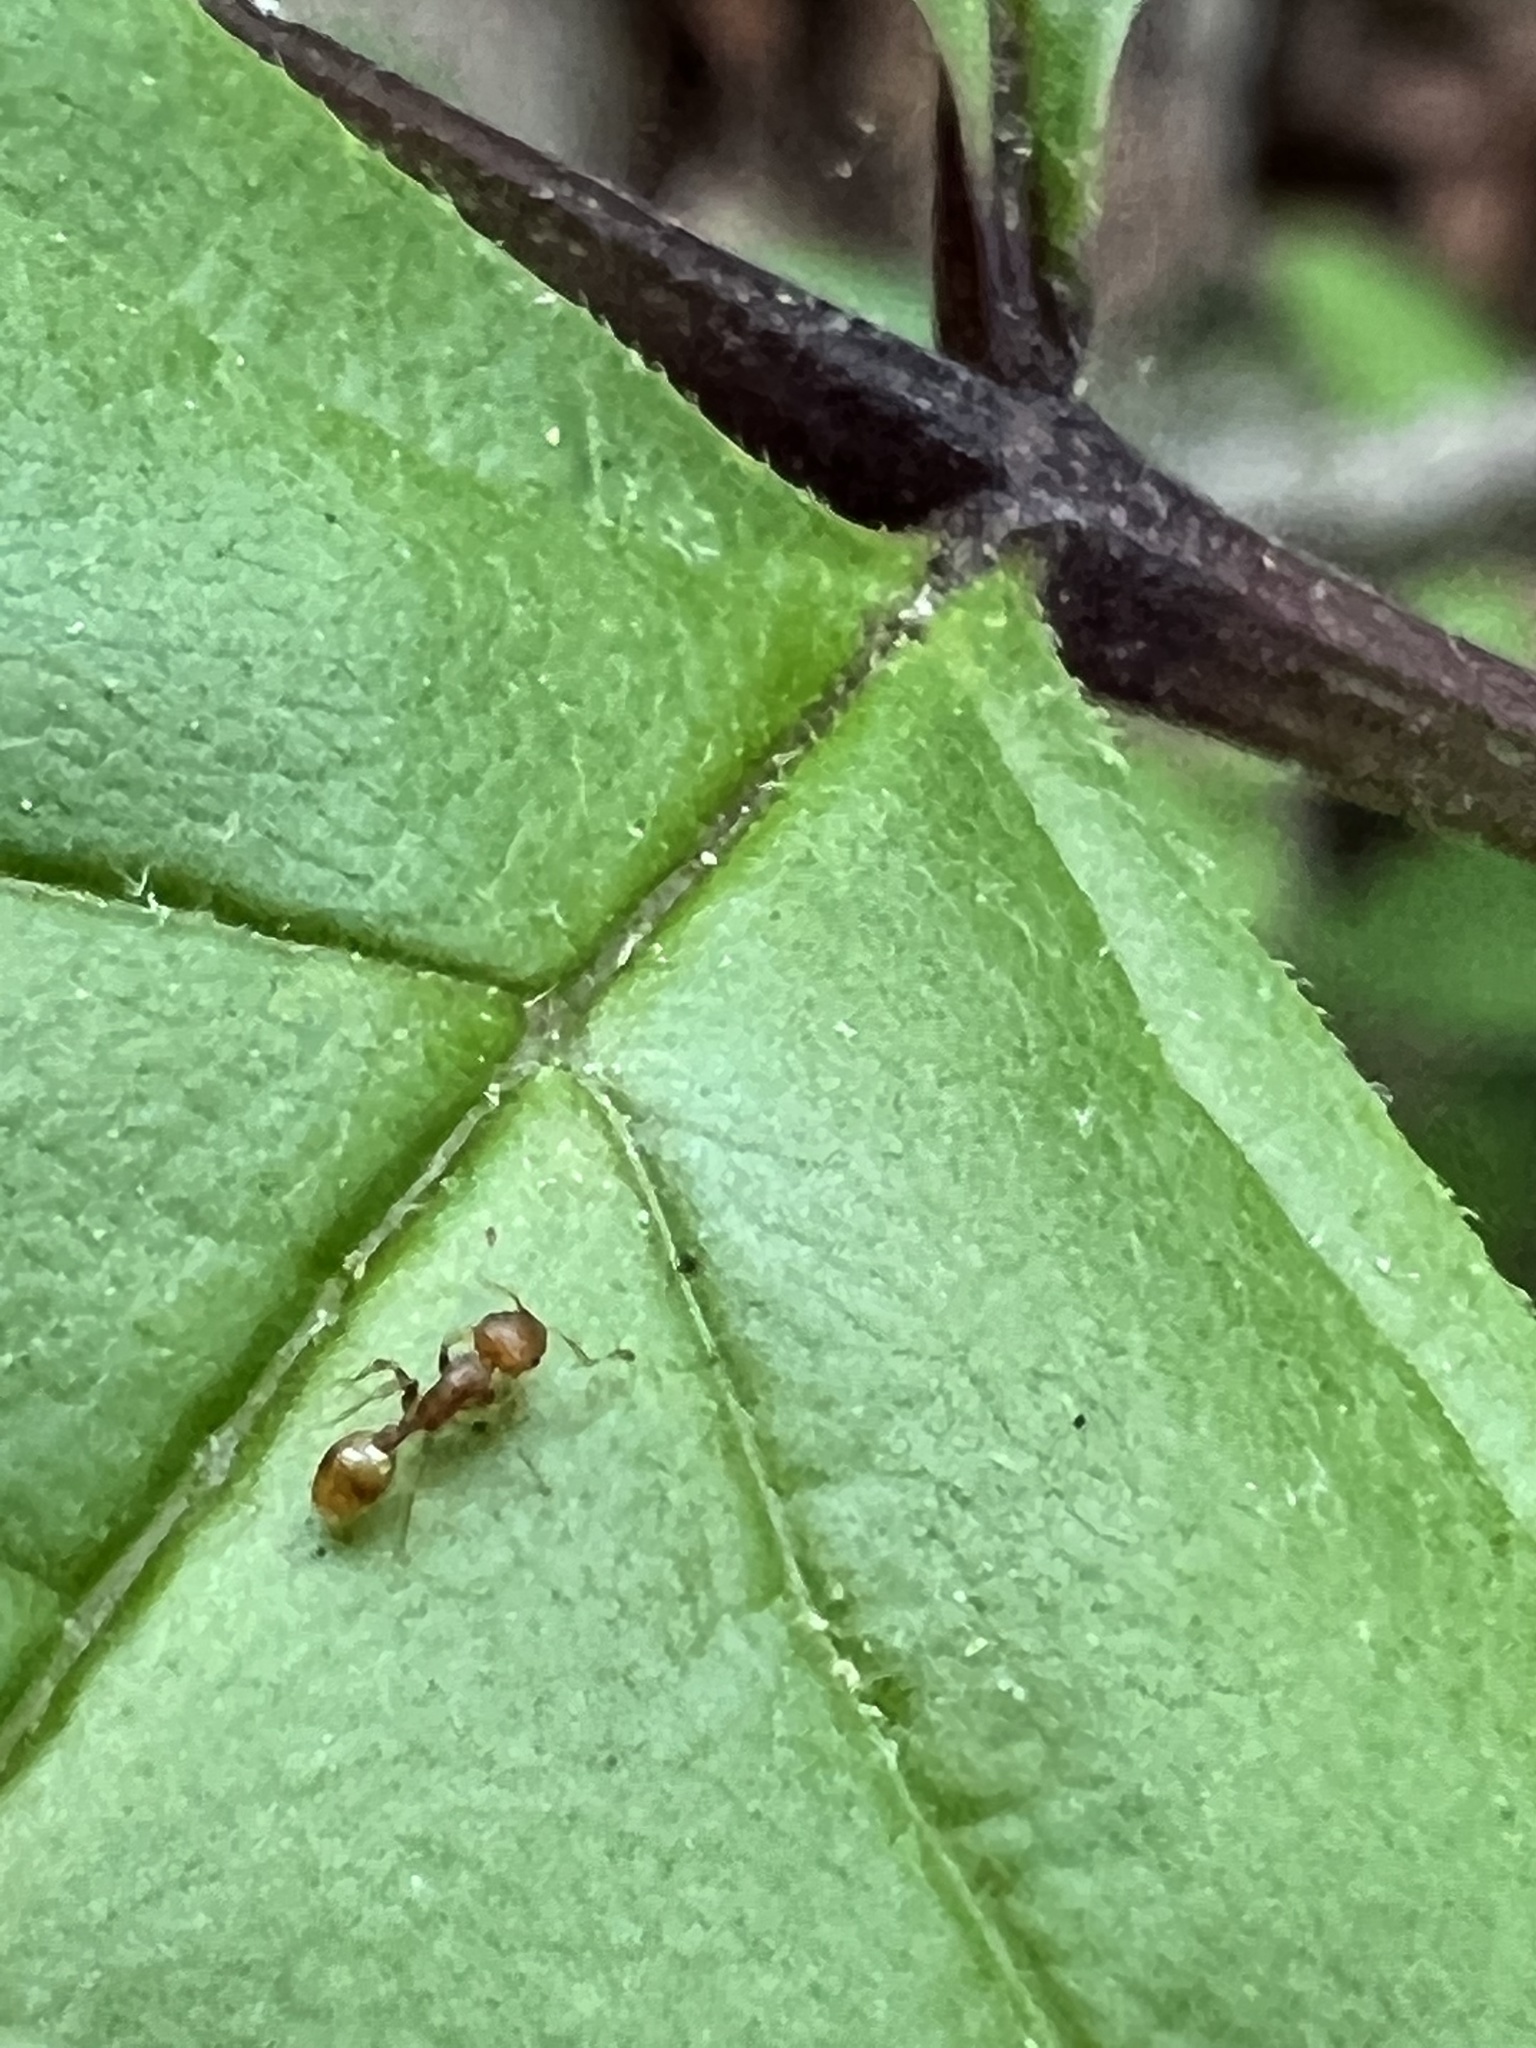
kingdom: Animalia
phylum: Arthropoda
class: Insecta
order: Hymenoptera
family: Formicidae
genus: Temnothorax
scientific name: Temnothorax curvispinosus
